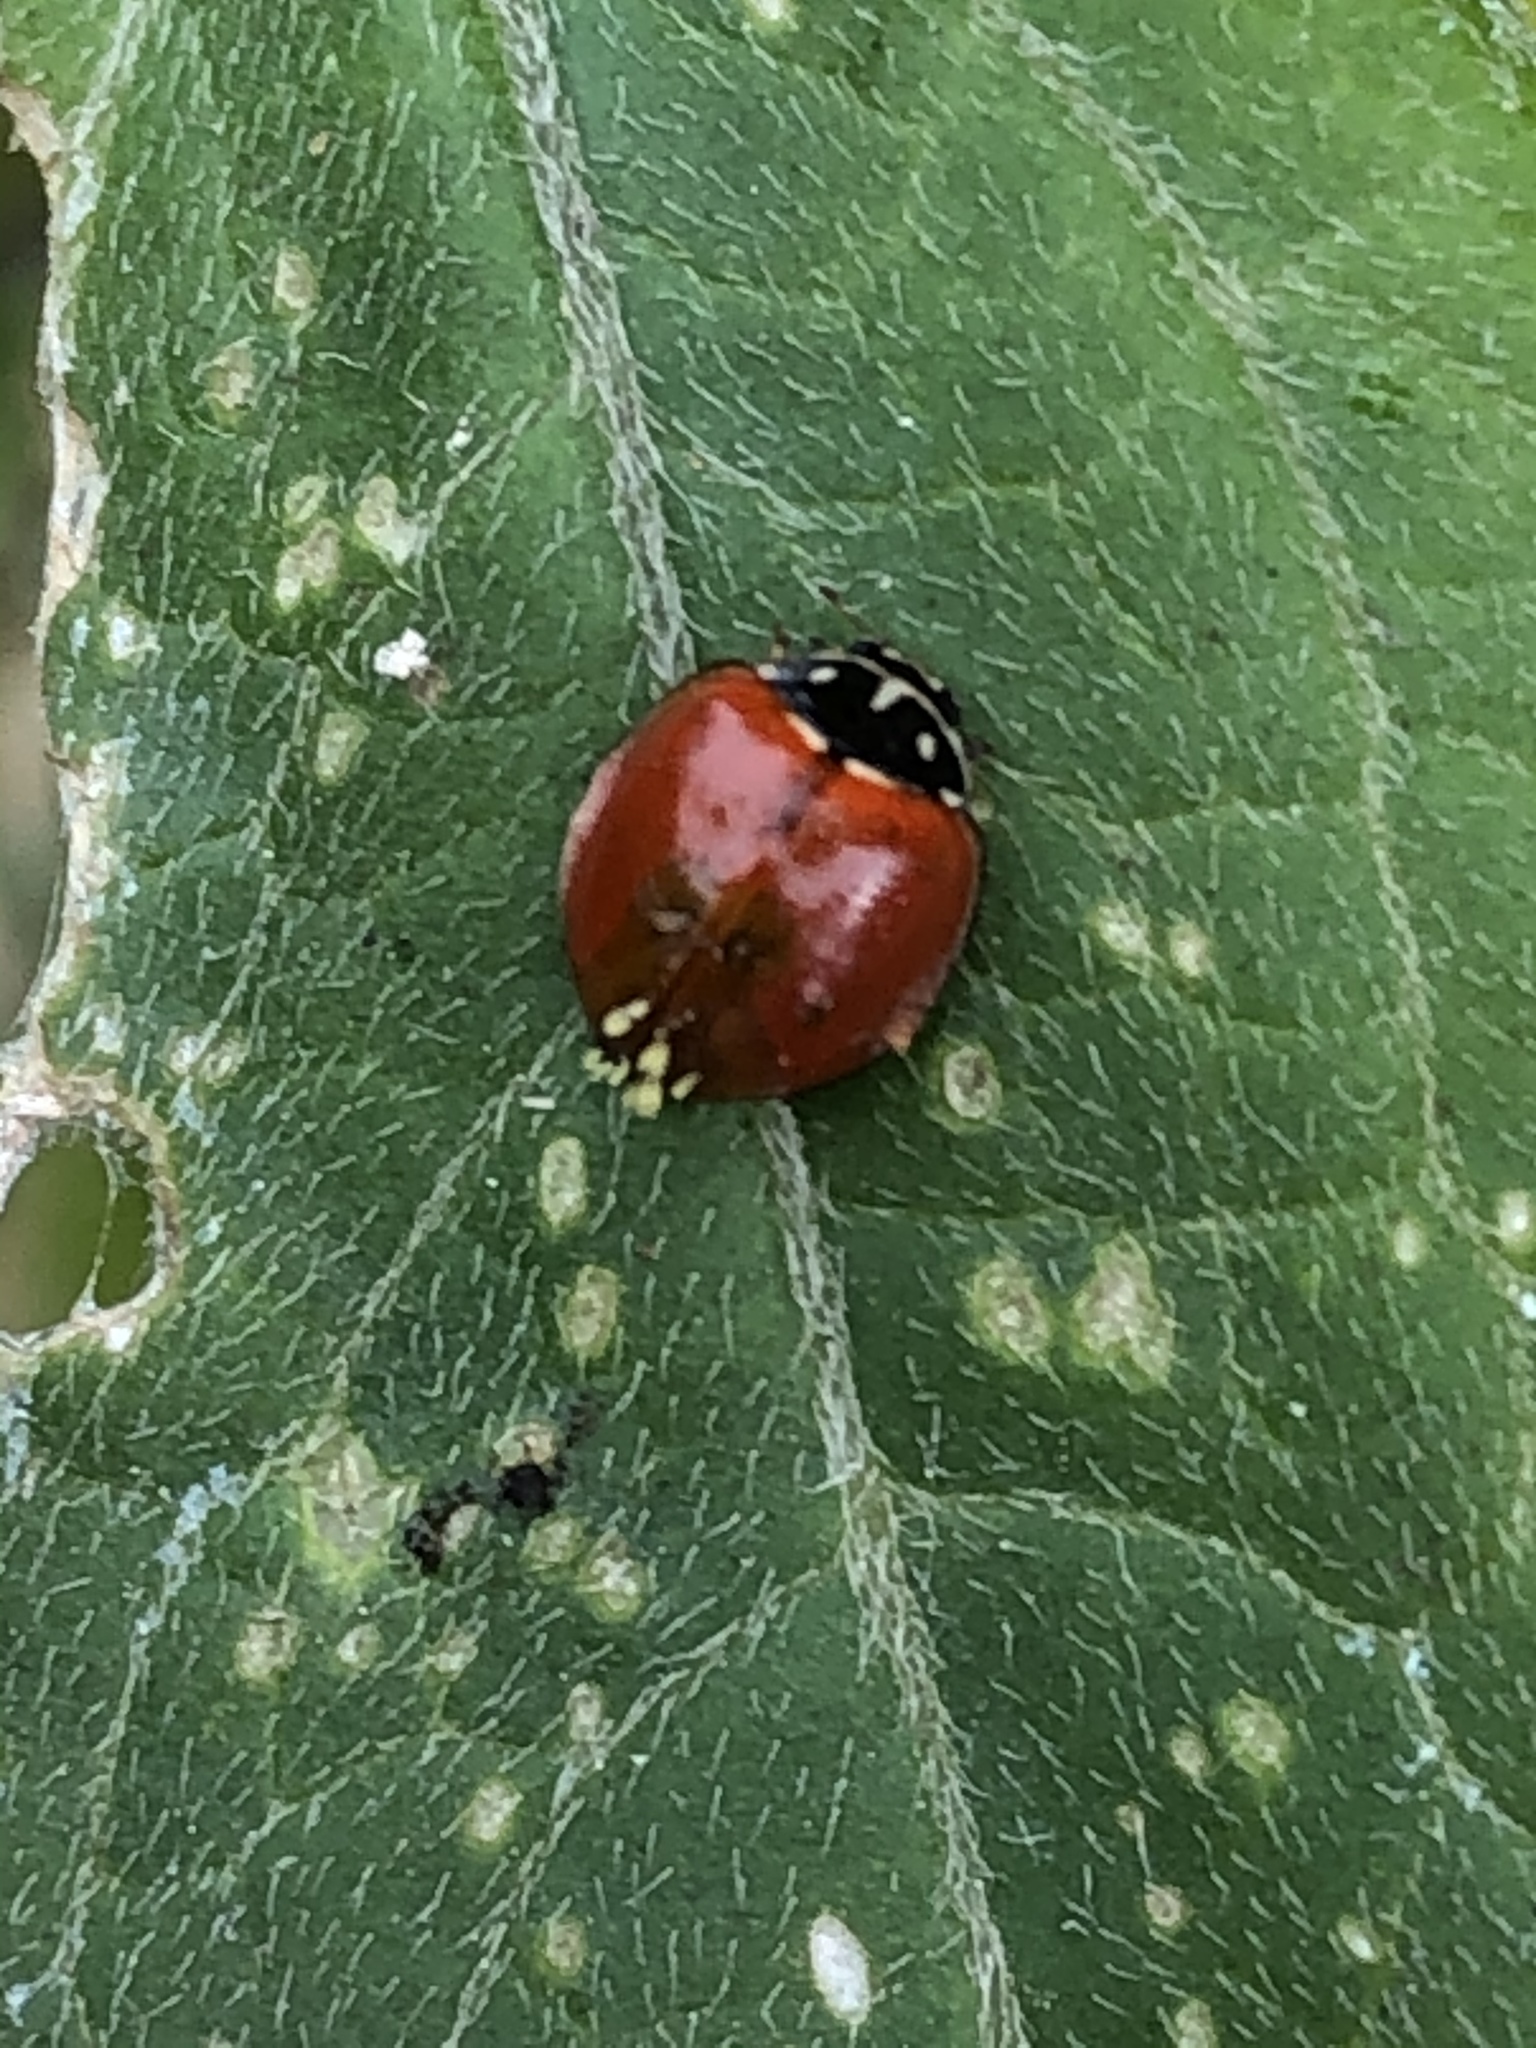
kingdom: Animalia
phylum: Arthropoda
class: Insecta
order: Coleoptera
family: Coccinellidae
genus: Cycloneda
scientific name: Cycloneda sanguinea
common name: Ladybird beetle
